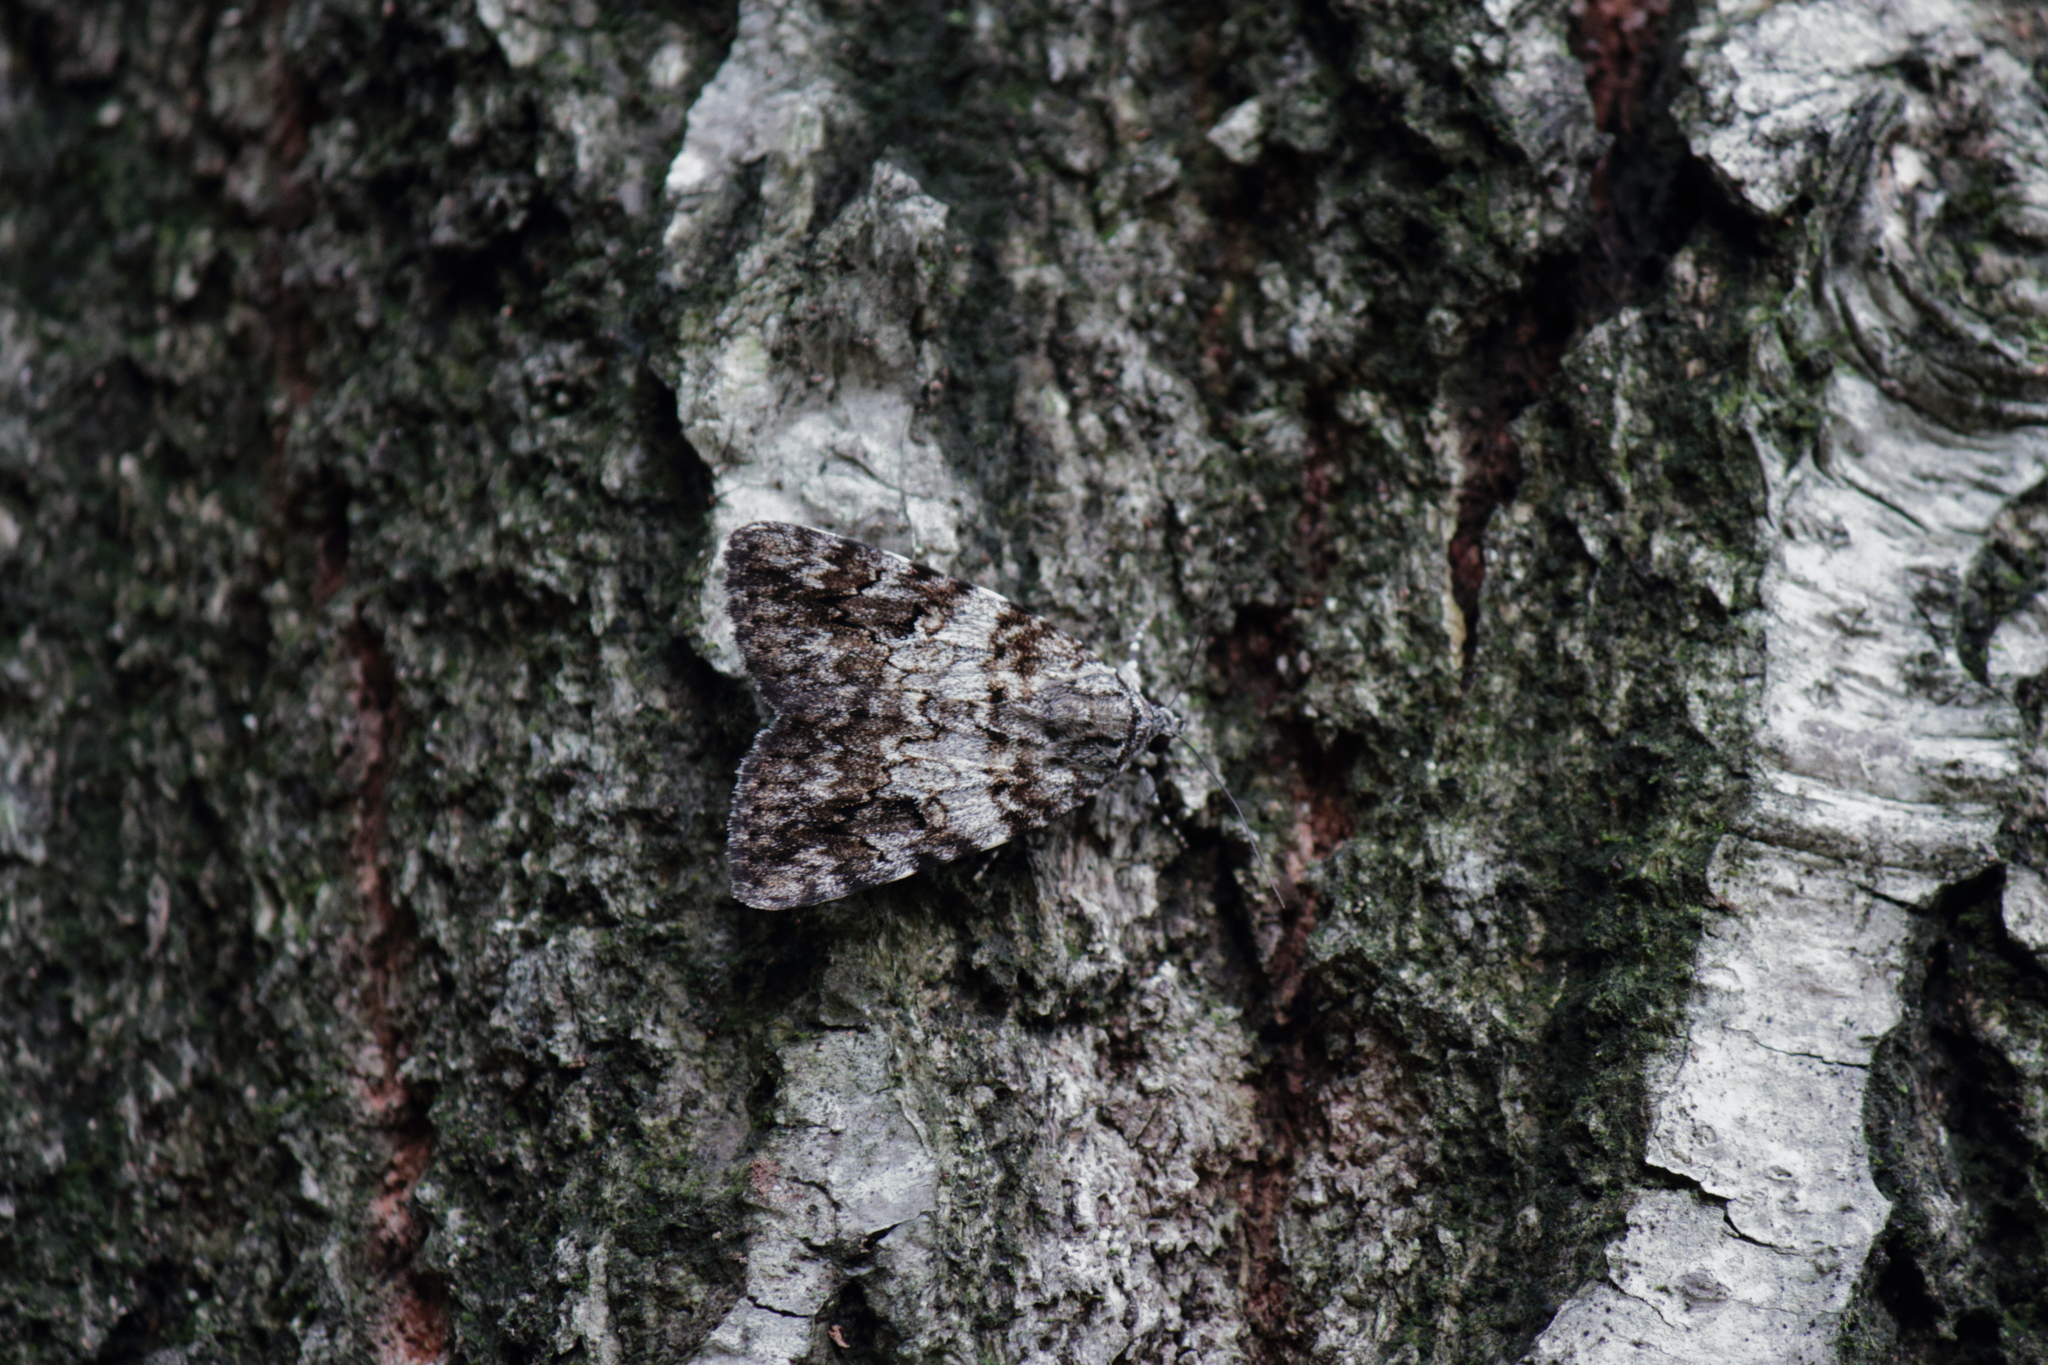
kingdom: Animalia
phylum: Arthropoda
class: Insecta
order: Lepidoptera
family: Erebidae
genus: Catocala
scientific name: Catocala duplicata
